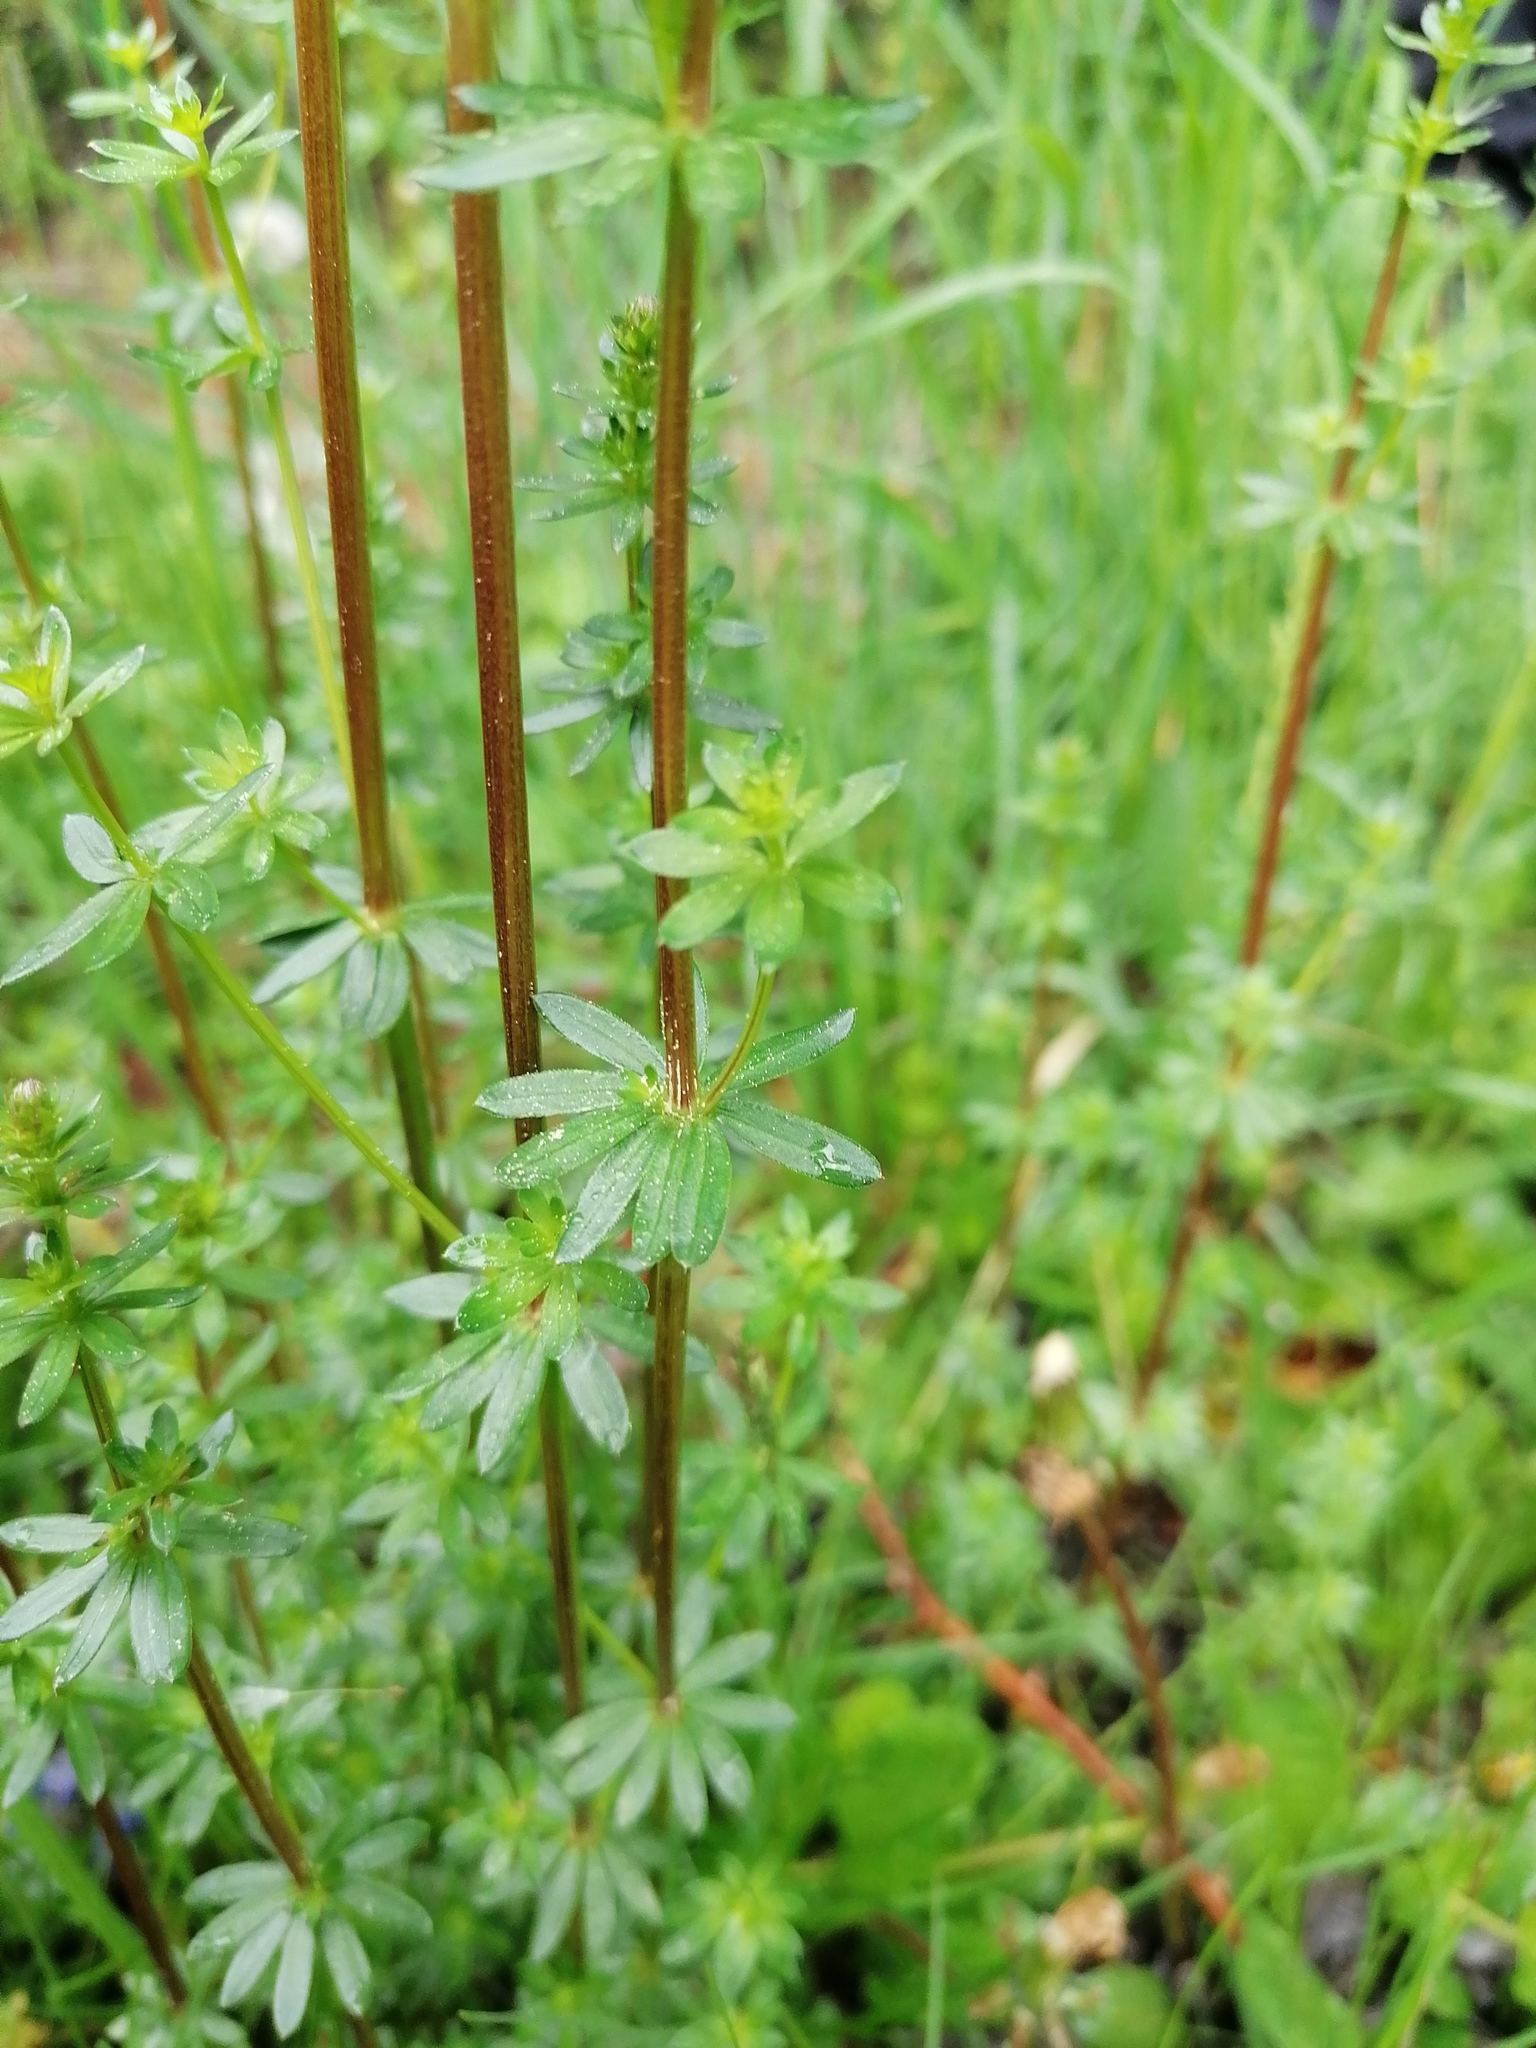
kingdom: Plantae
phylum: Tracheophyta
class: Magnoliopsida
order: Gentianales
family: Rubiaceae
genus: Galium
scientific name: Galium album
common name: White bedstraw
